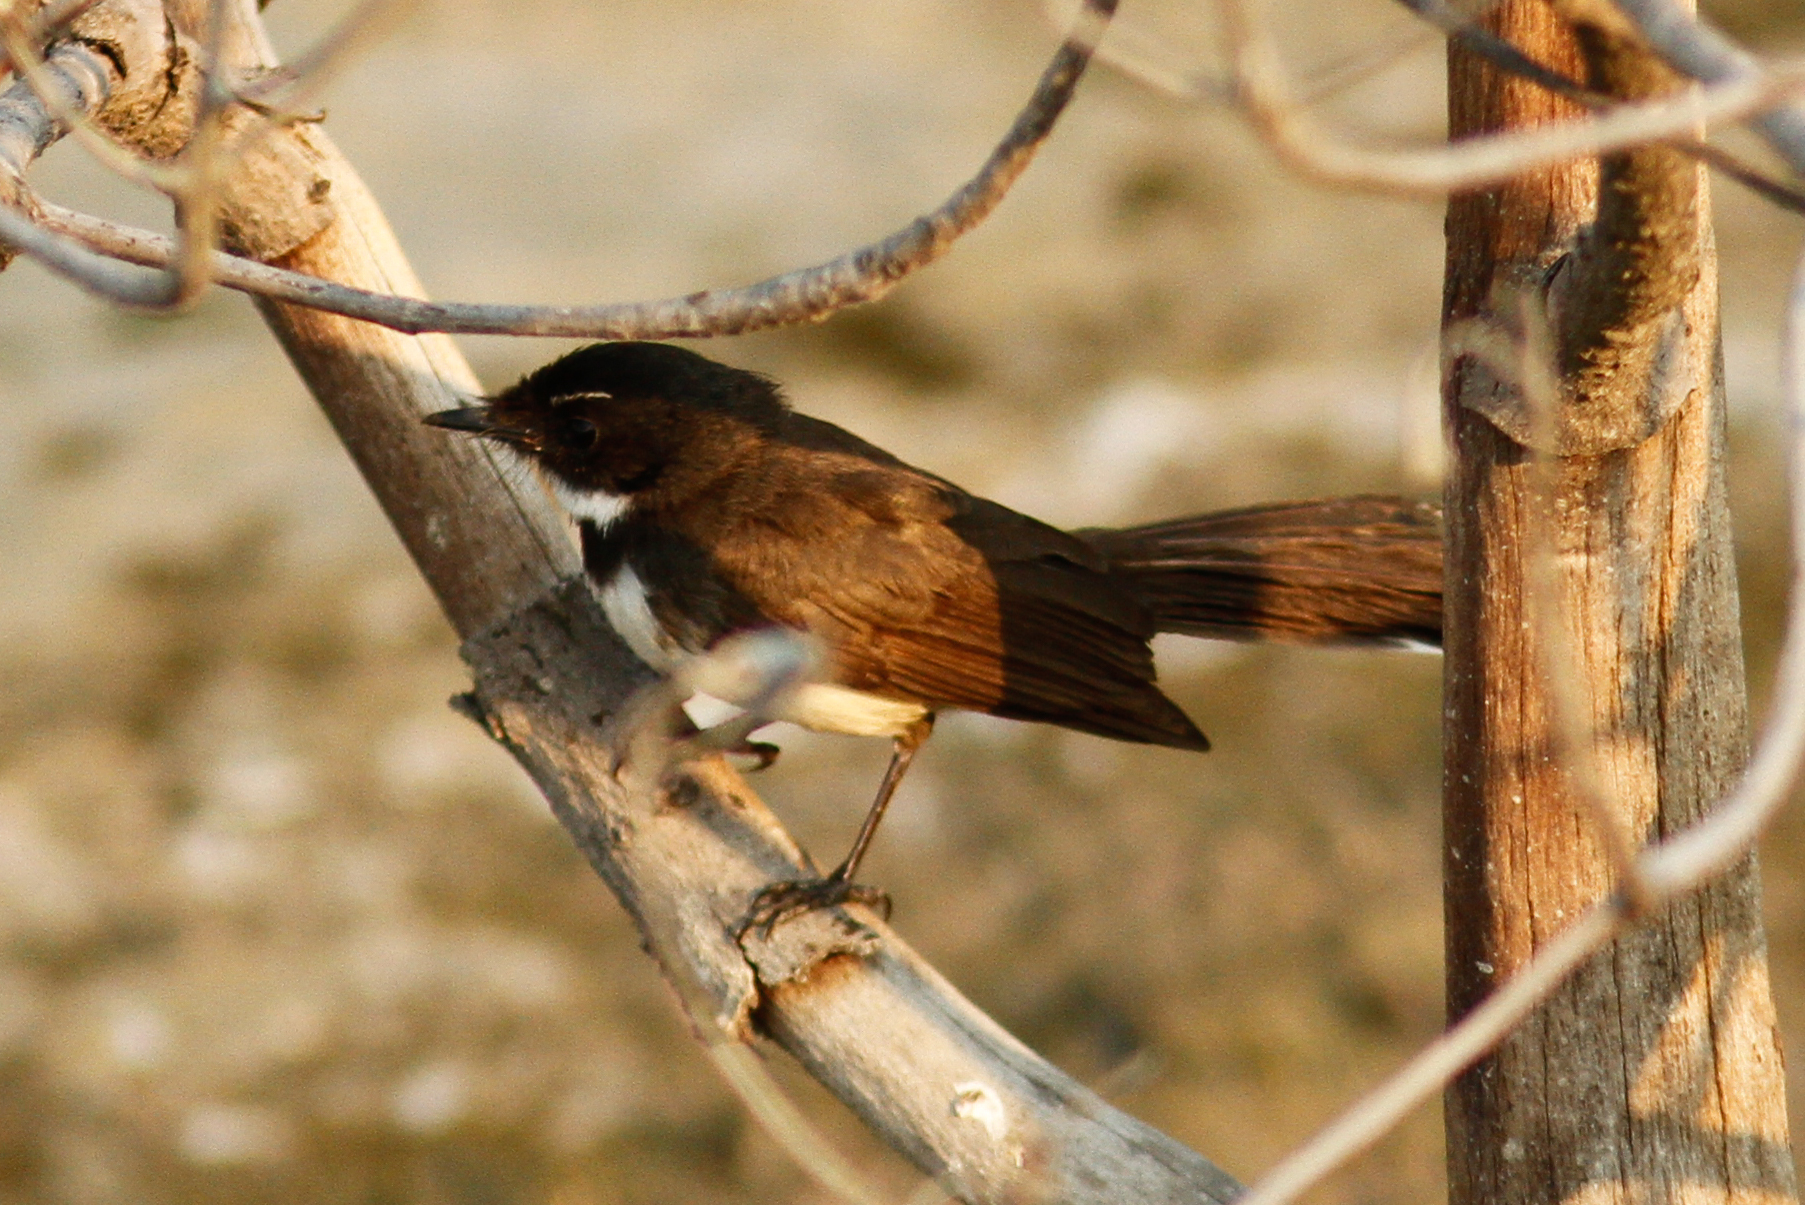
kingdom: Animalia
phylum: Chordata
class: Aves
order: Passeriformes
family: Rhipiduridae
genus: Rhipidura
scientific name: Rhipidura javanica
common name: Pied fantail
